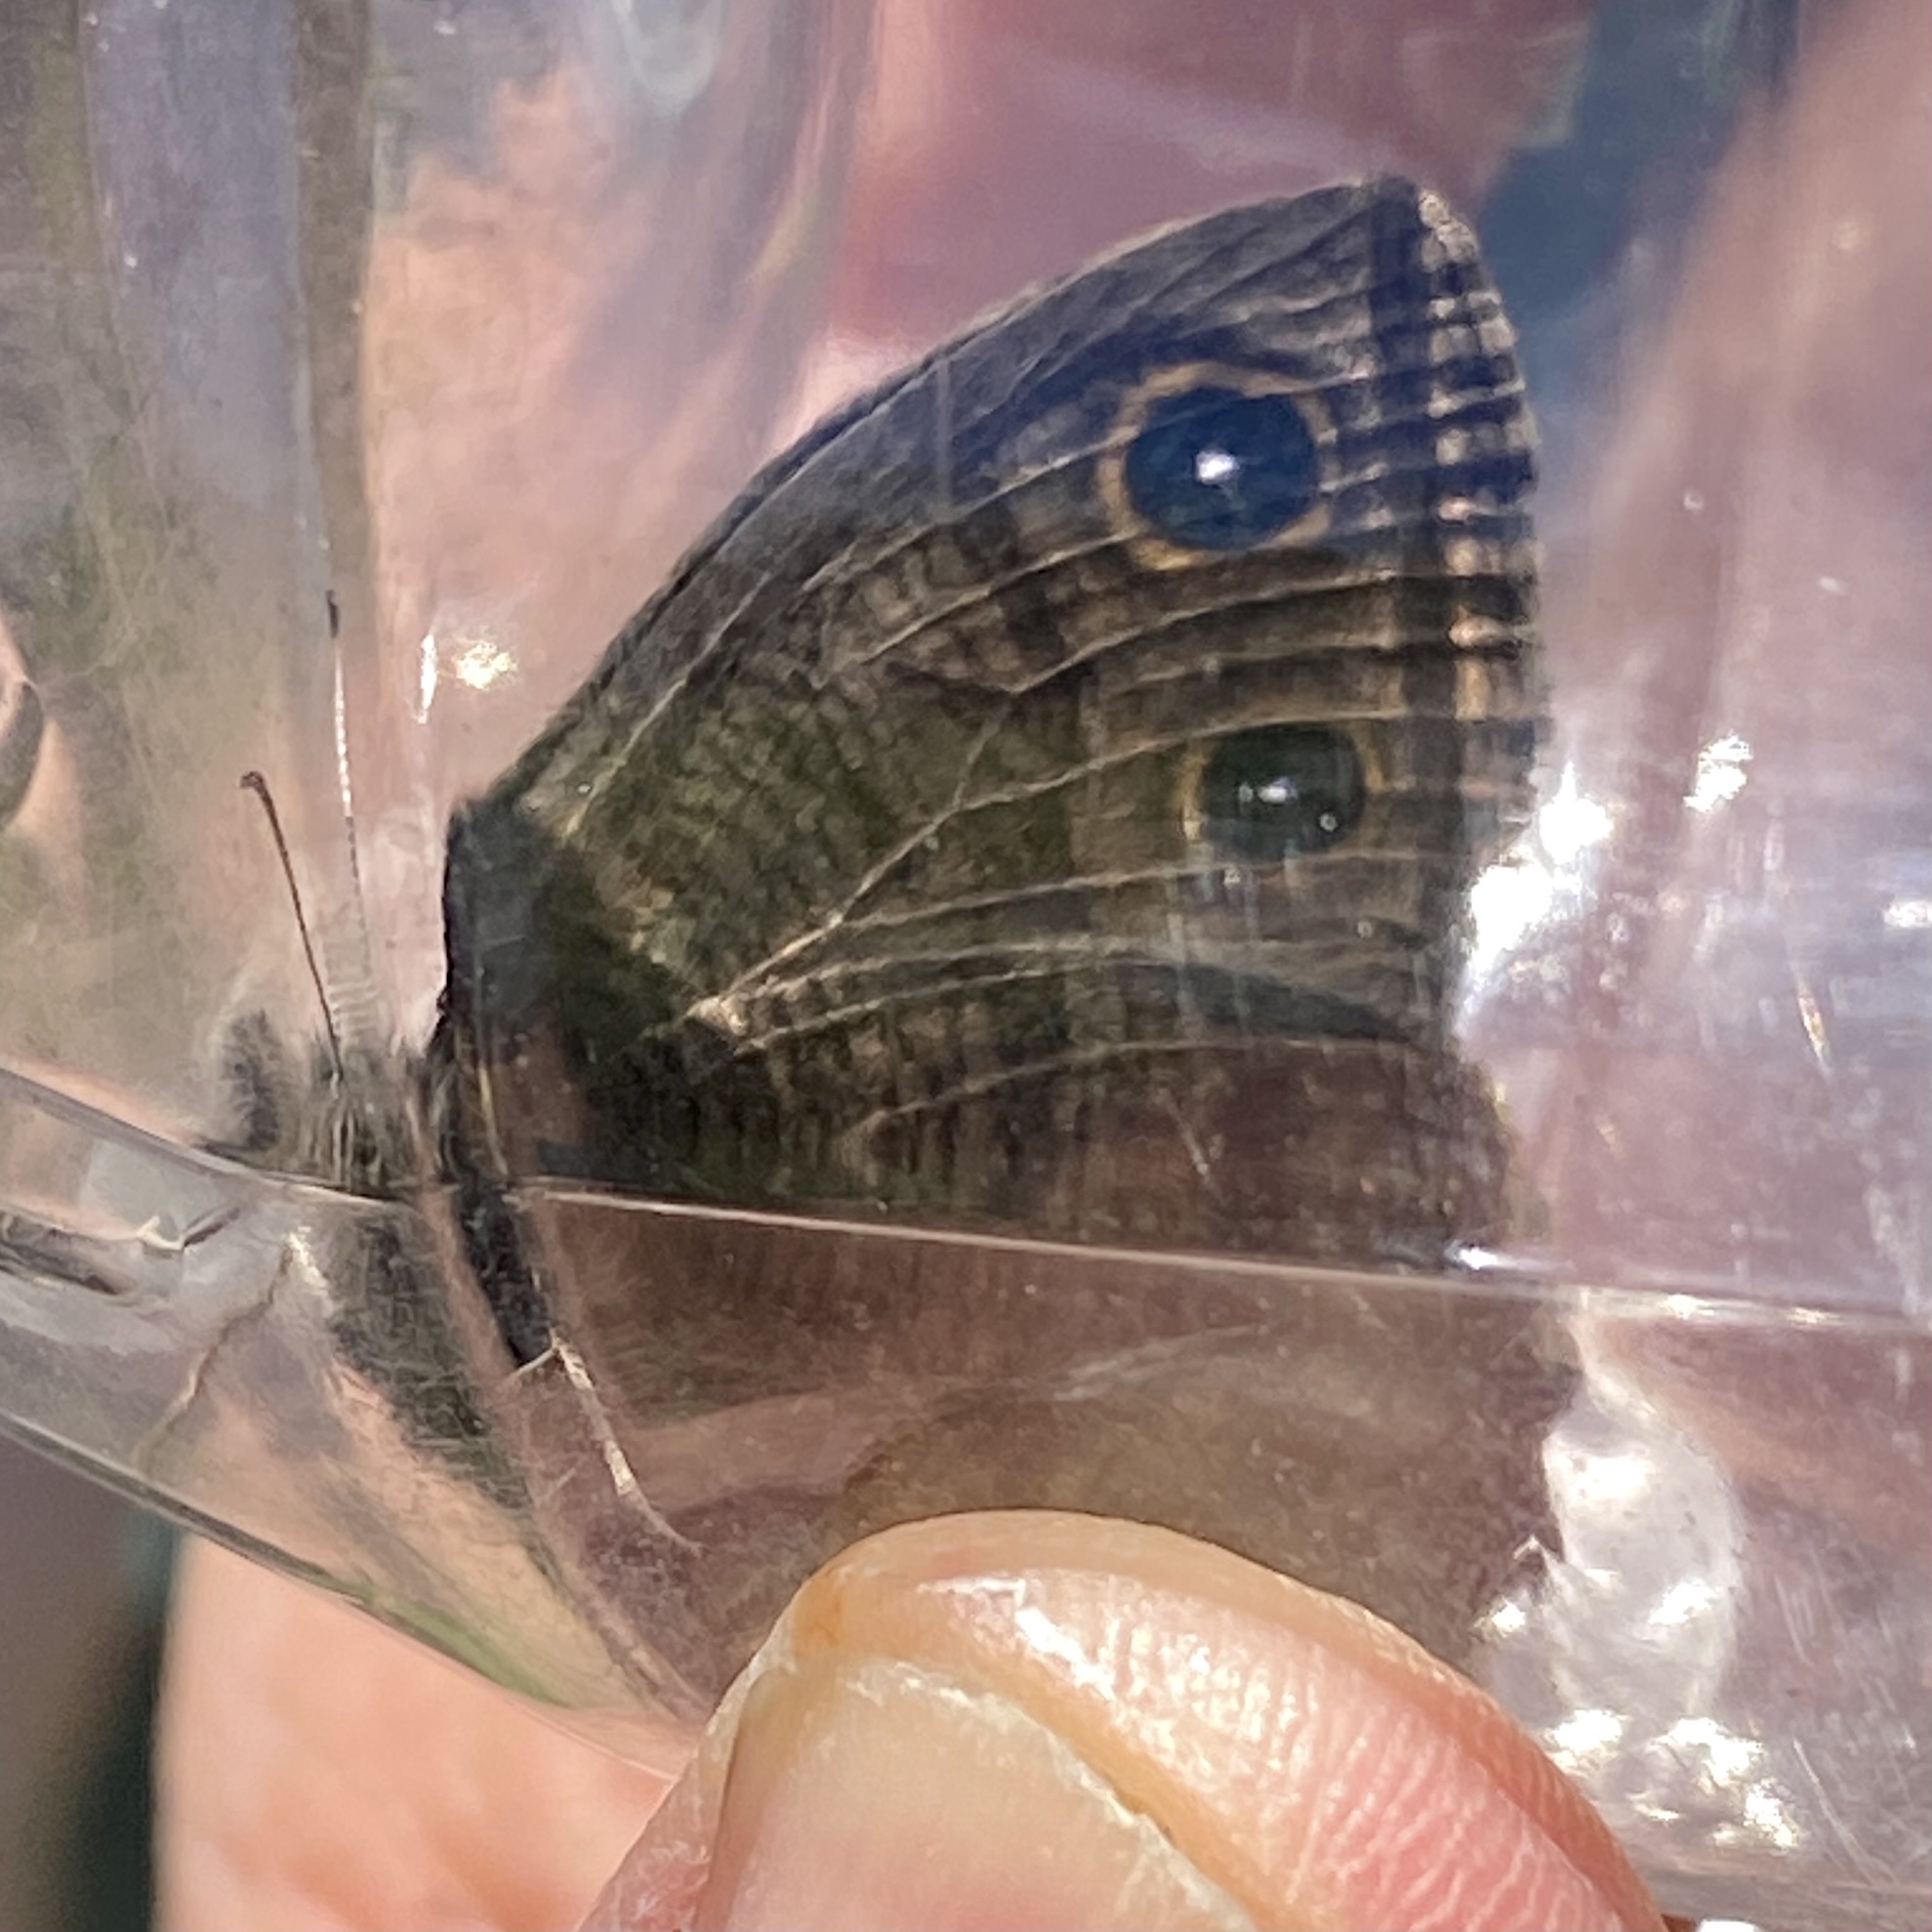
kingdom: Animalia
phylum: Arthropoda
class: Insecta
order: Lepidoptera
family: Nymphalidae
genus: Cercyonis
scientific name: Cercyonis pegala
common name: Common wood-nymph
